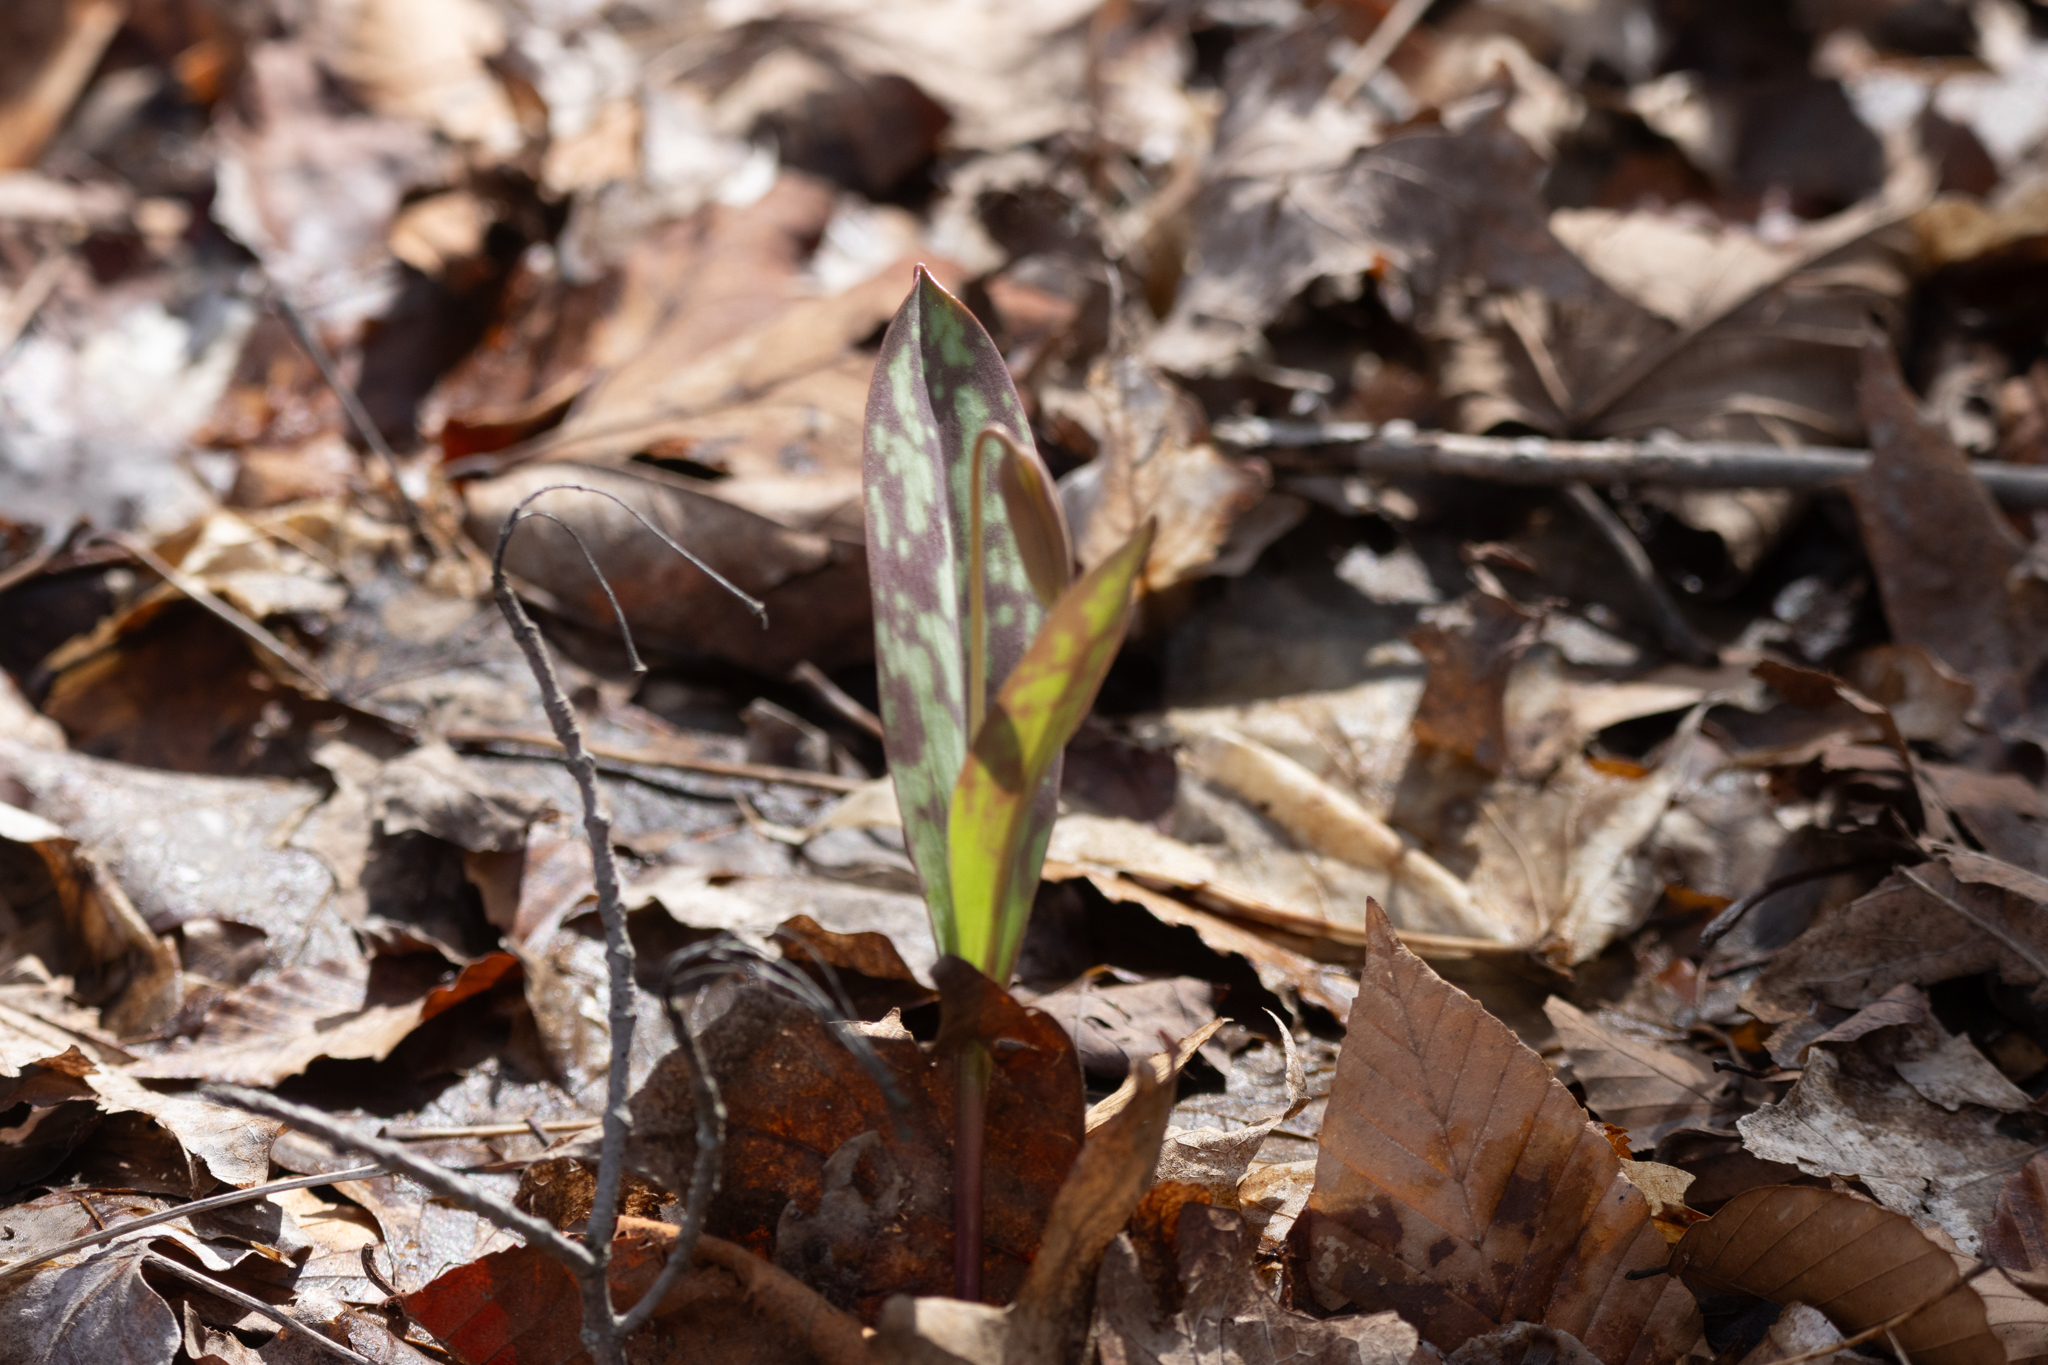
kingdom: Plantae
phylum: Tracheophyta
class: Liliopsida
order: Liliales
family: Liliaceae
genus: Erythronium
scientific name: Erythronium americanum
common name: Yellow adder's-tongue
